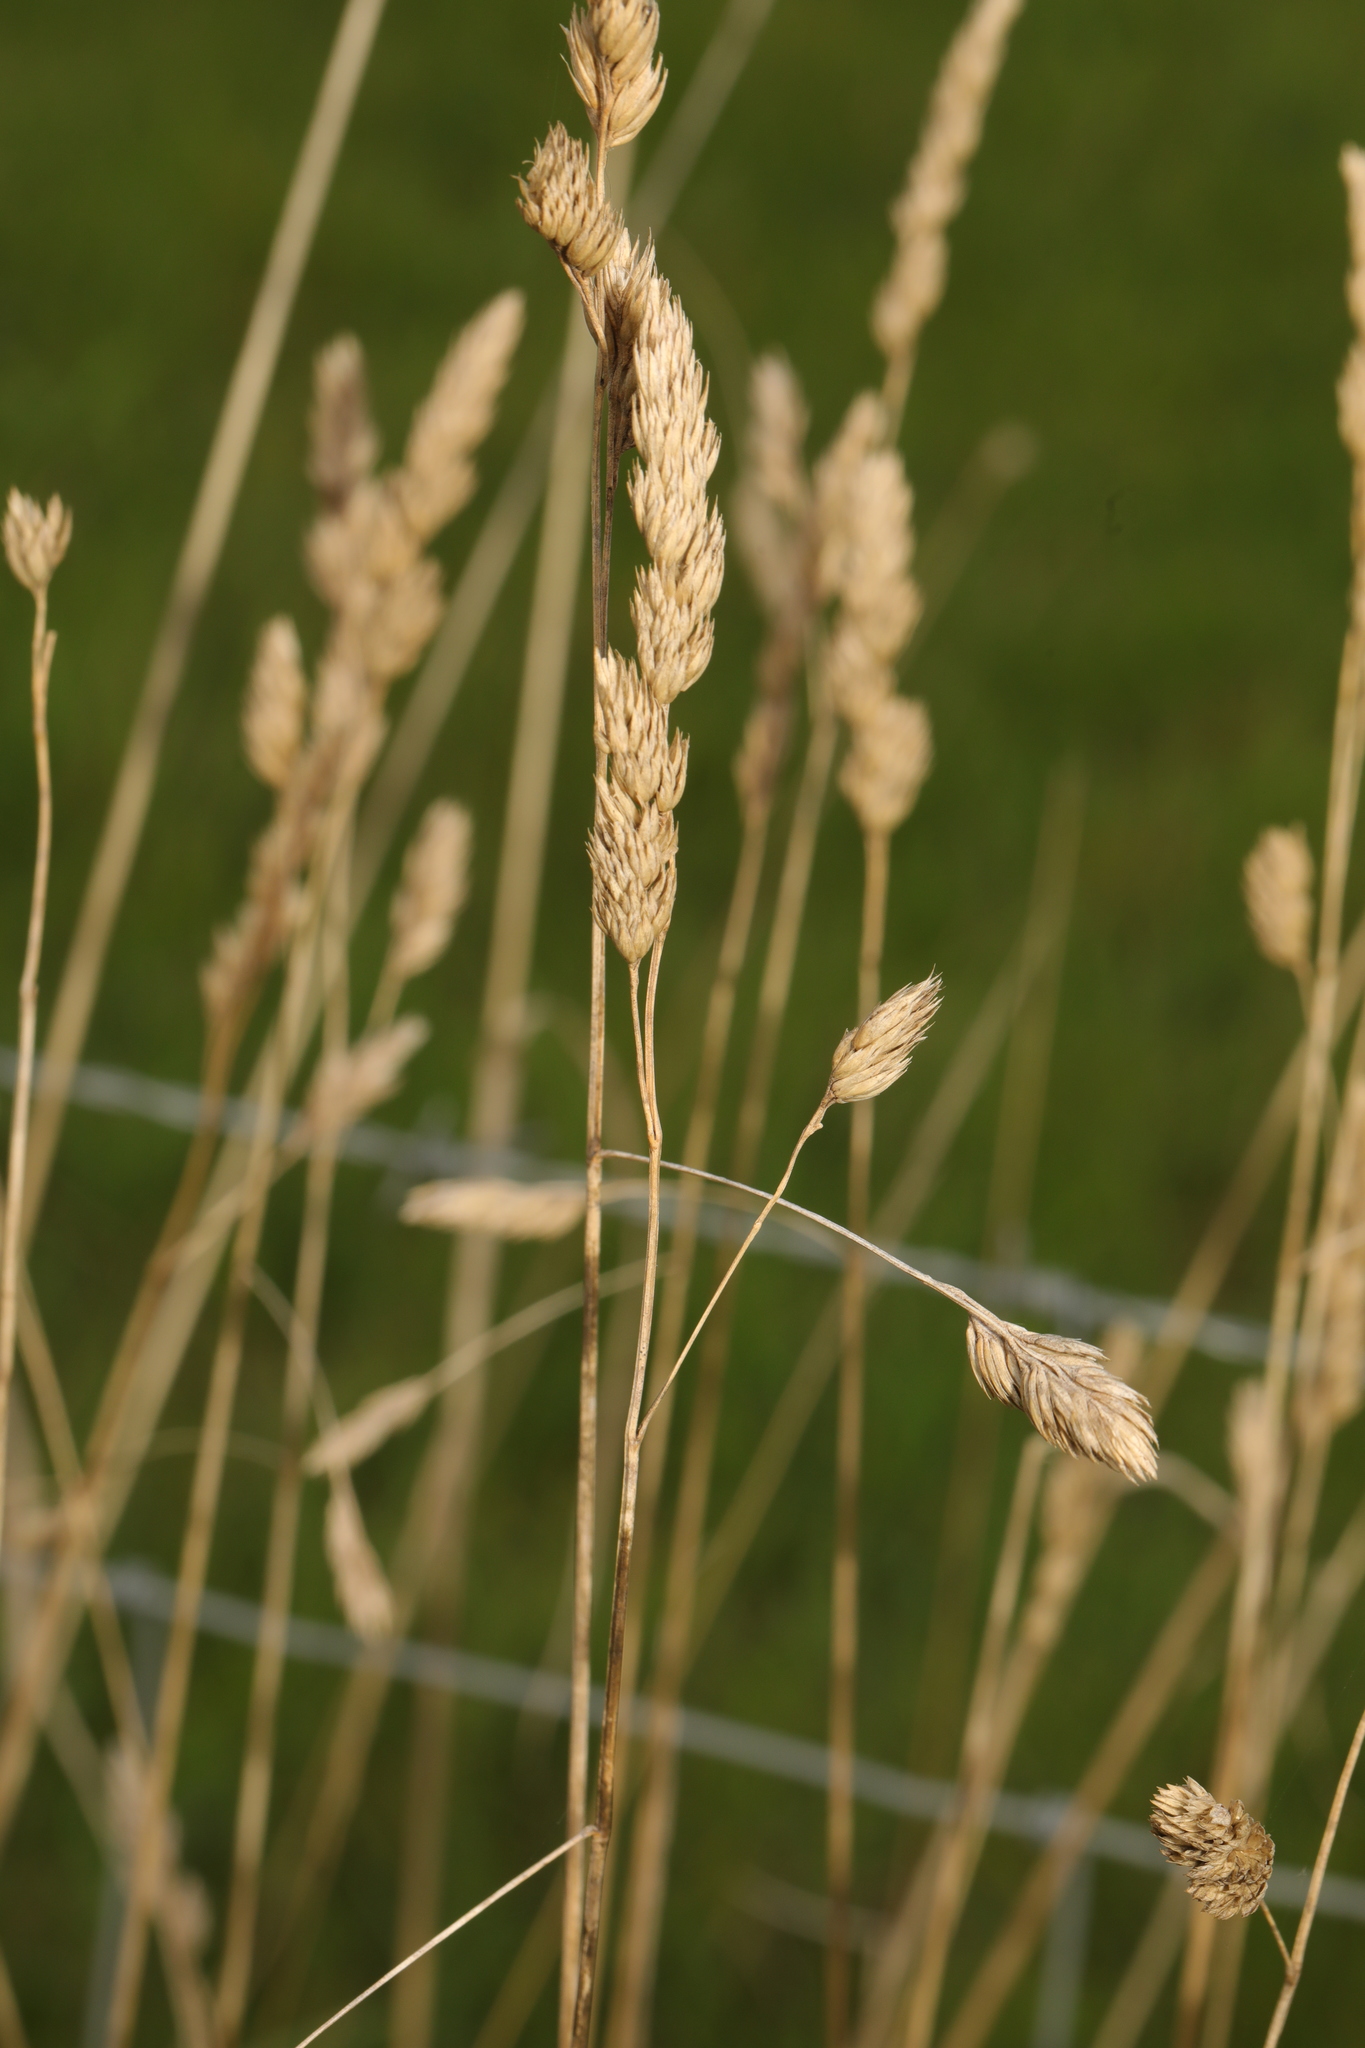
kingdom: Plantae
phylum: Tracheophyta
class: Liliopsida
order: Poales
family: Poaceae
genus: Dactylis
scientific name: Dactylis glomerata
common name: Orchardgrass
